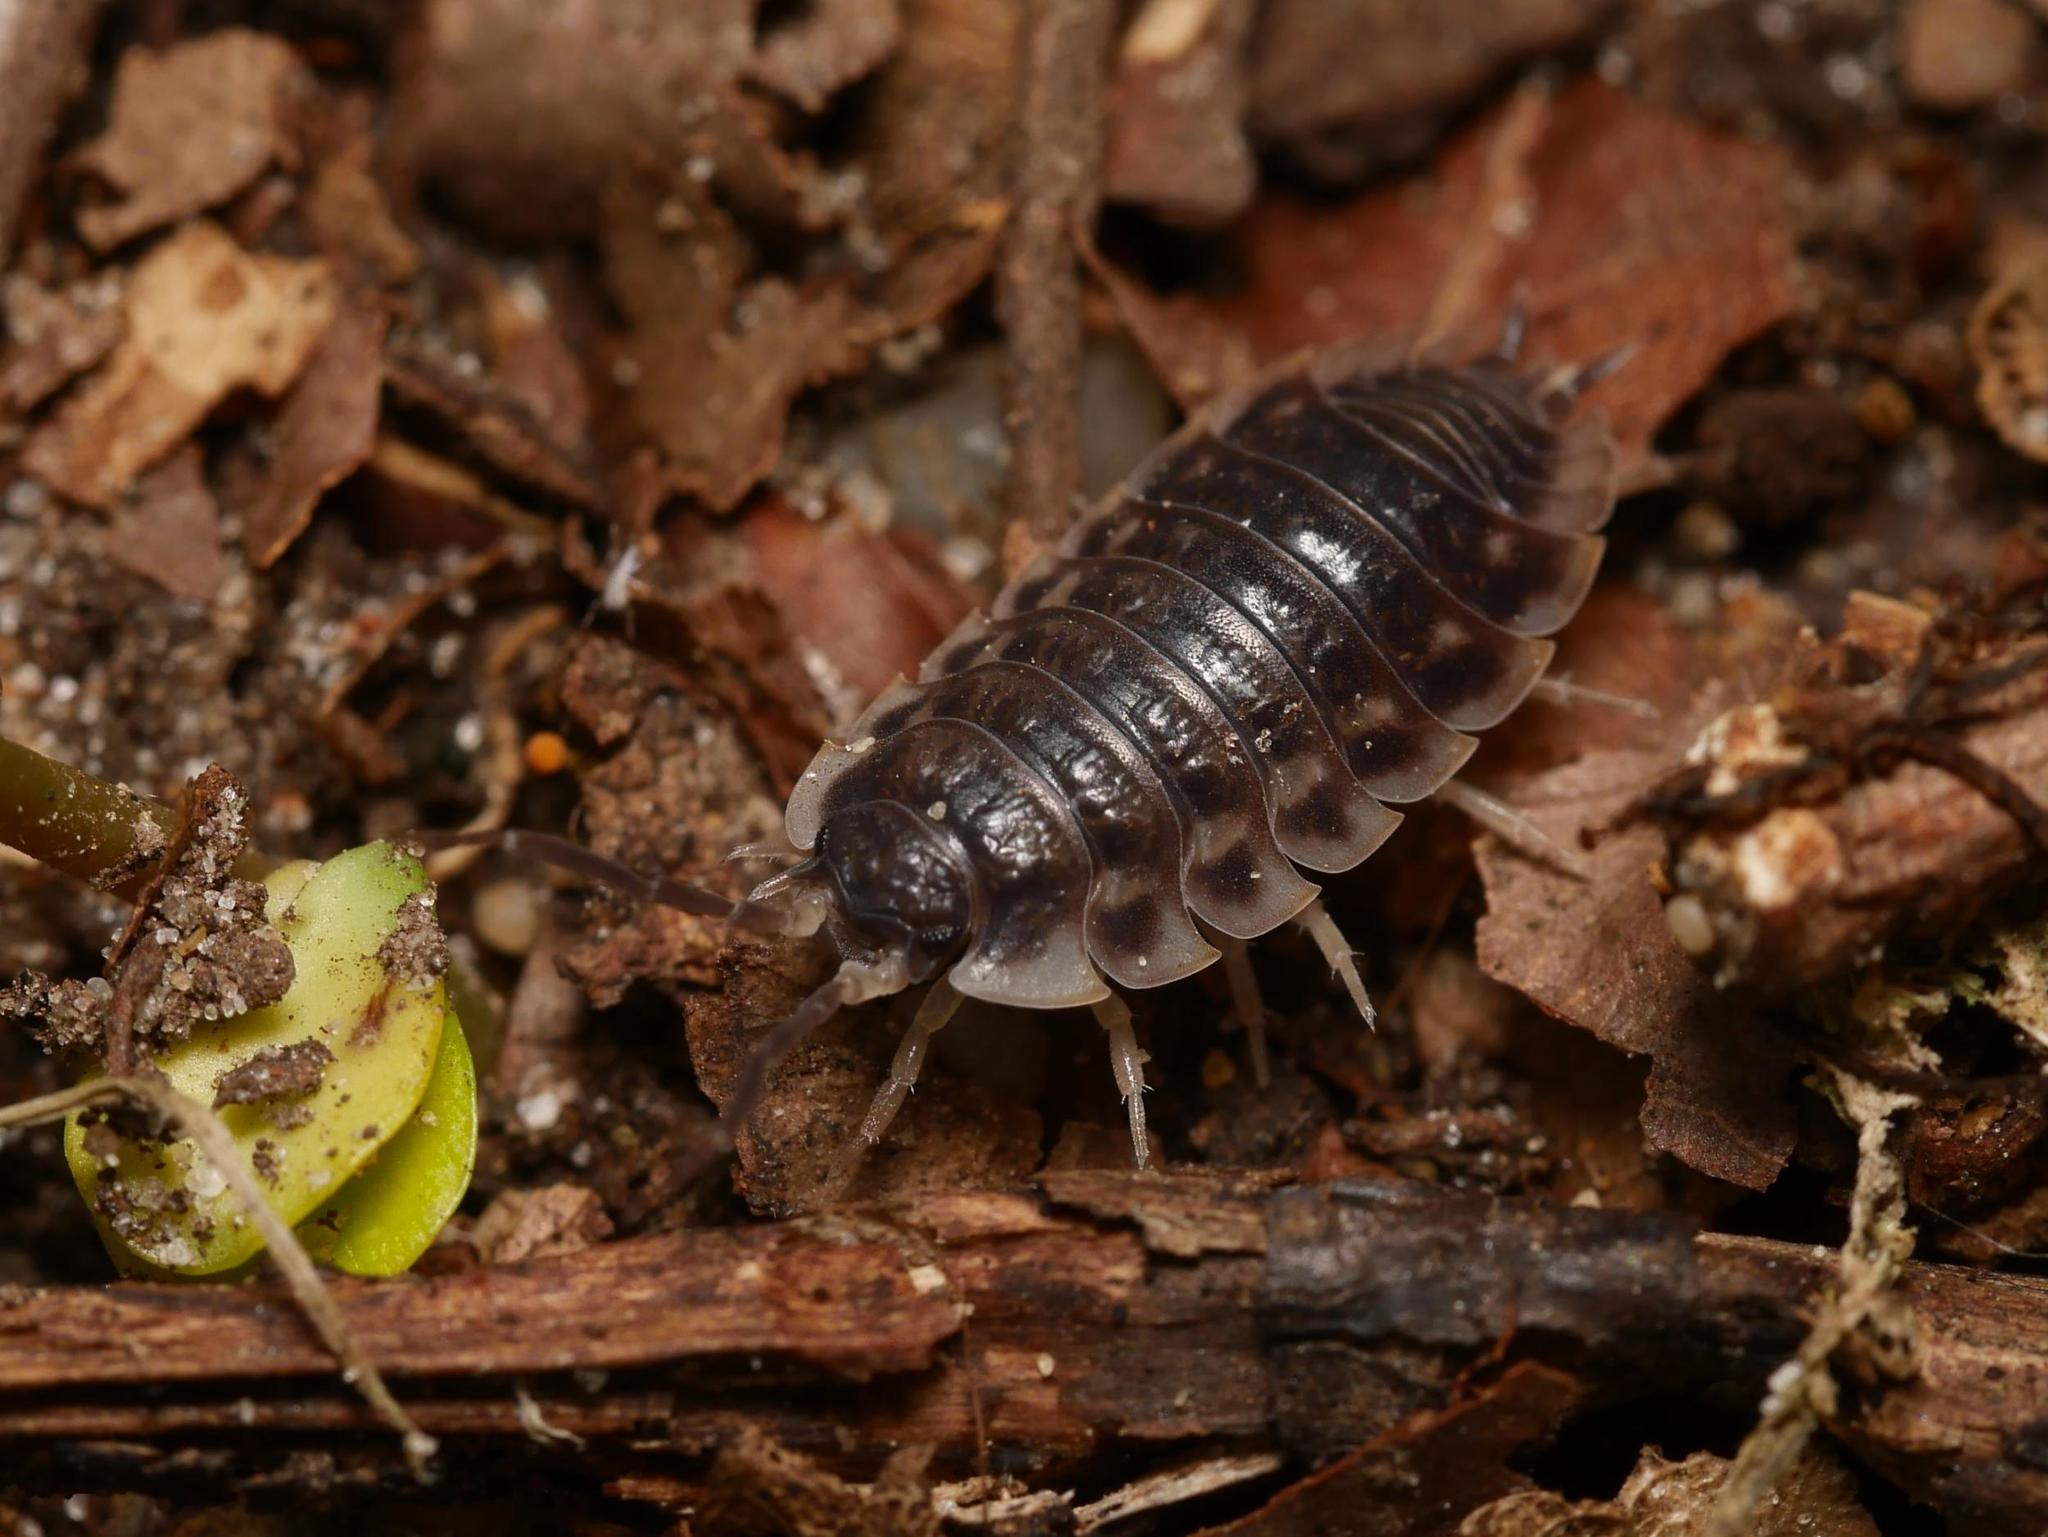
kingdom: Animalia
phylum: Arthropoda
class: Malacostraca
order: Isopoda
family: Oniscidae
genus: Oniscus
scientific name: Oniscus asellus
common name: Common shiny woodlouse
